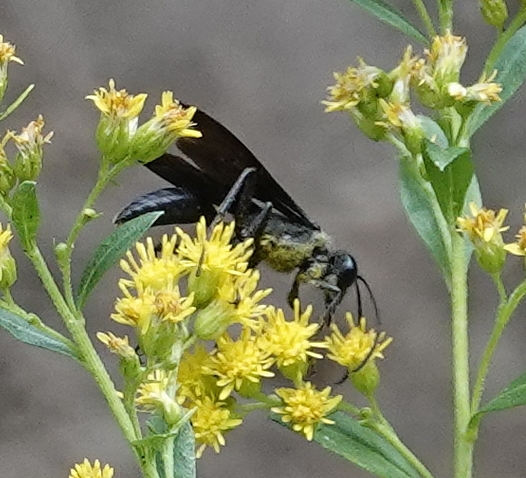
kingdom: Animalia
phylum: Arthropoda
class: Insecta
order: Hymenoptera
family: Sphecidae
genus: Sphex
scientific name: Sphex pensylvanicus
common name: Great black digger wasp
